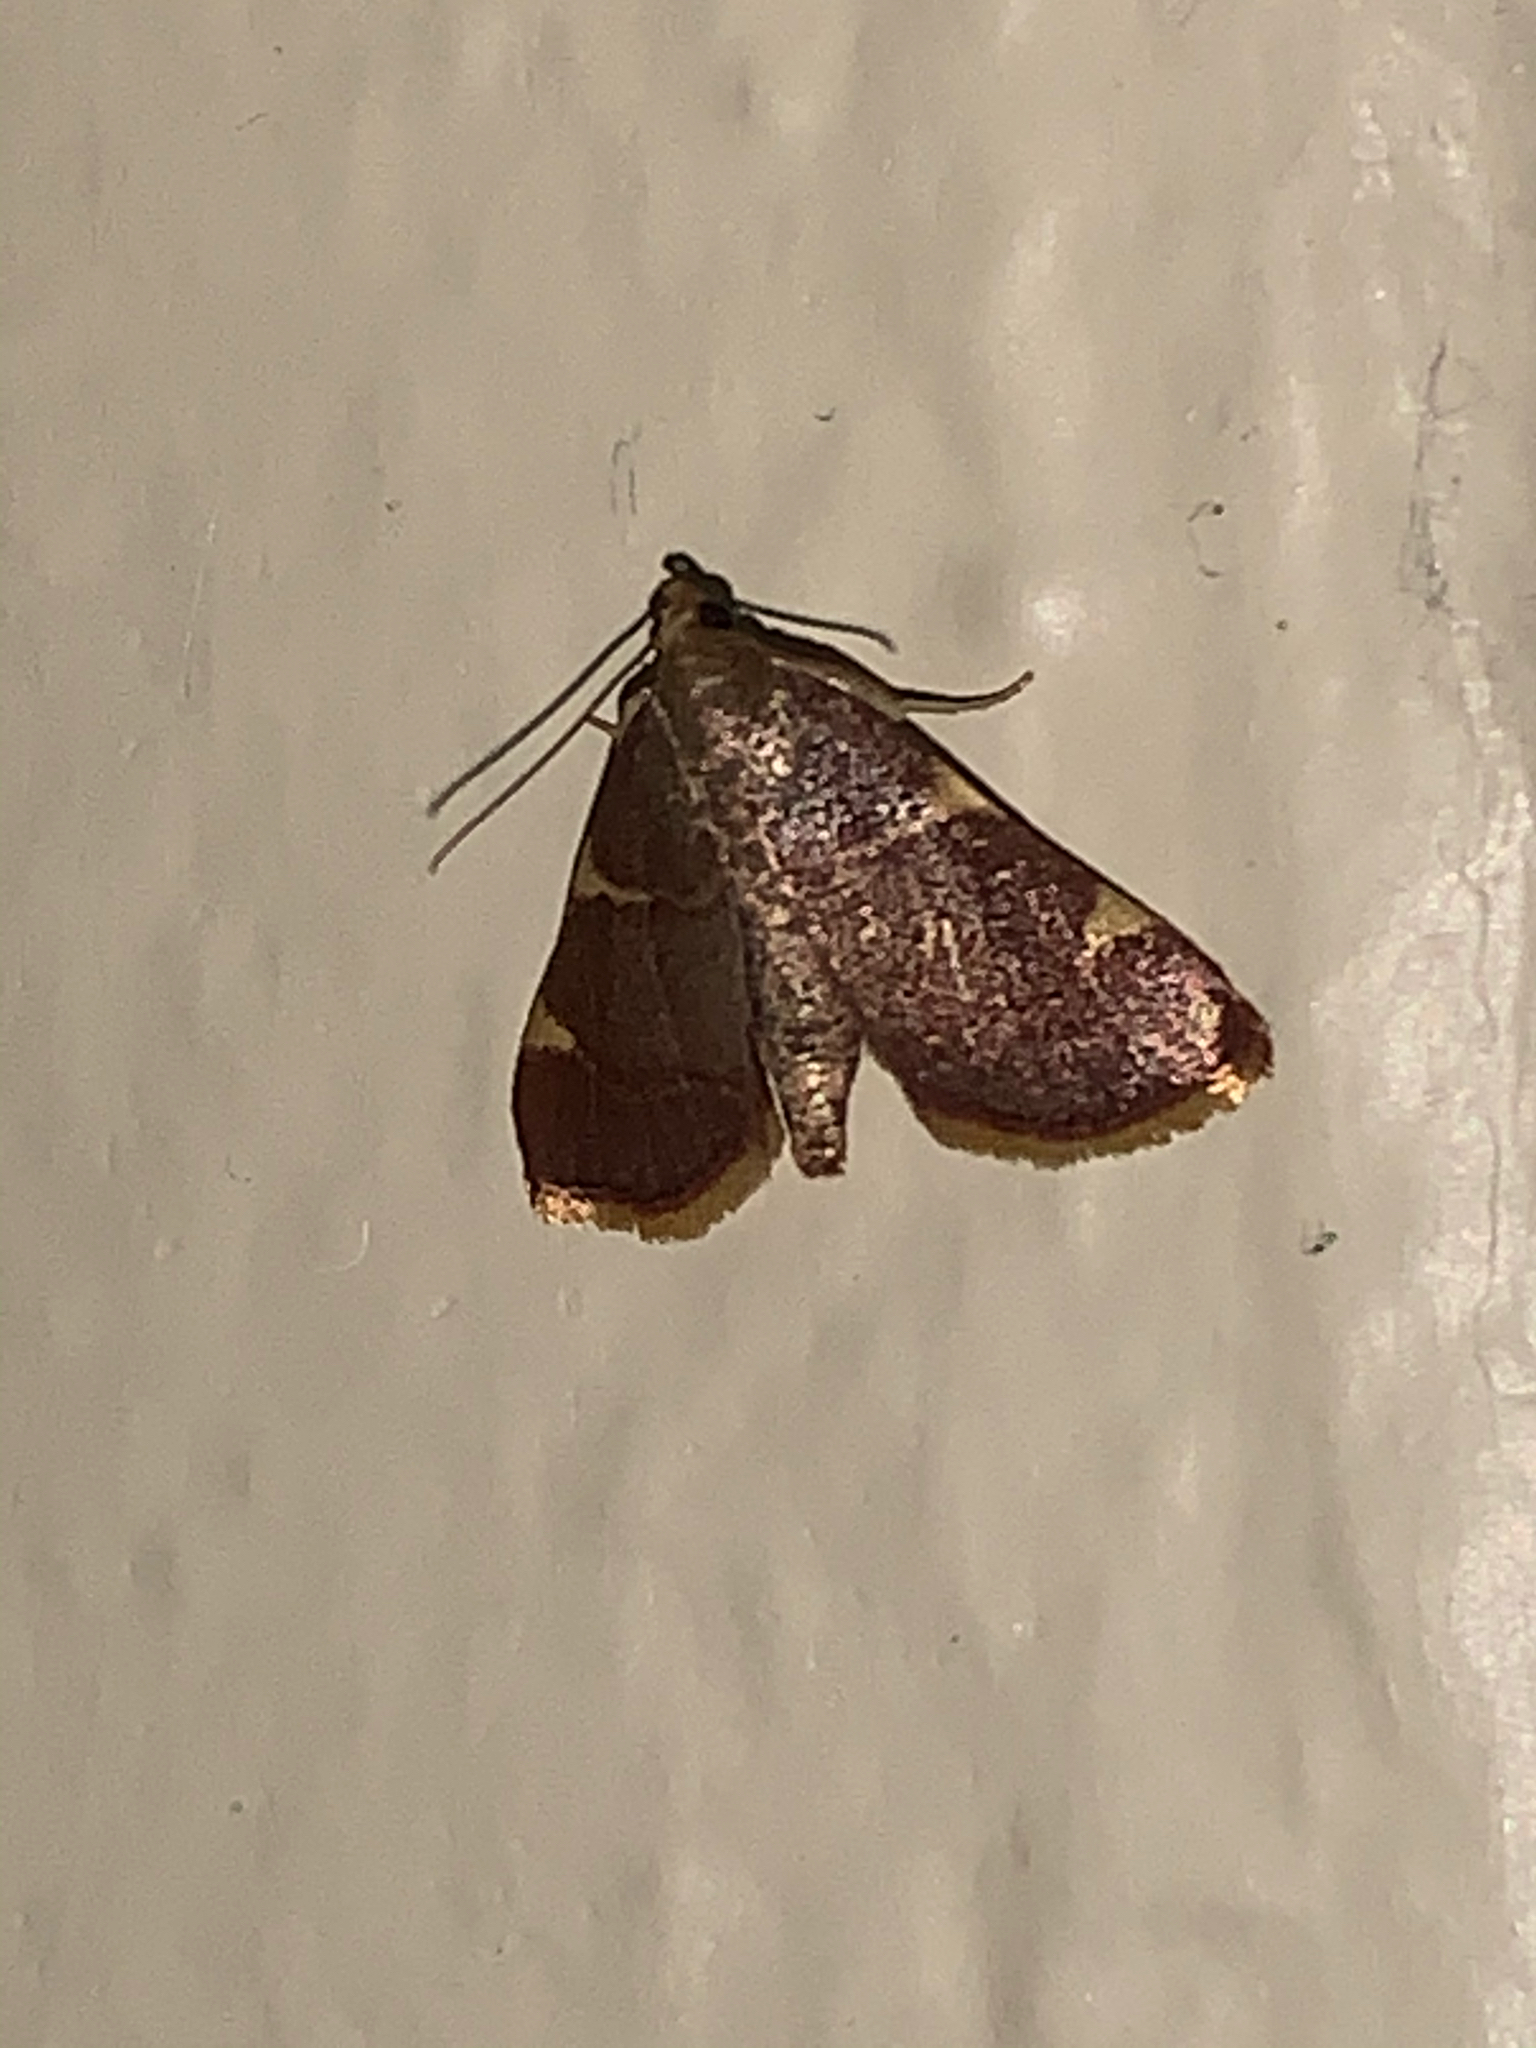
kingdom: Animalia
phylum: Arthropoda
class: Insecta
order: Lepidoptera
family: Pyralidae
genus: Hypsopygia
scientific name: Hypsopygia olinalis
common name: Yellow-fringed dolichomia moth
